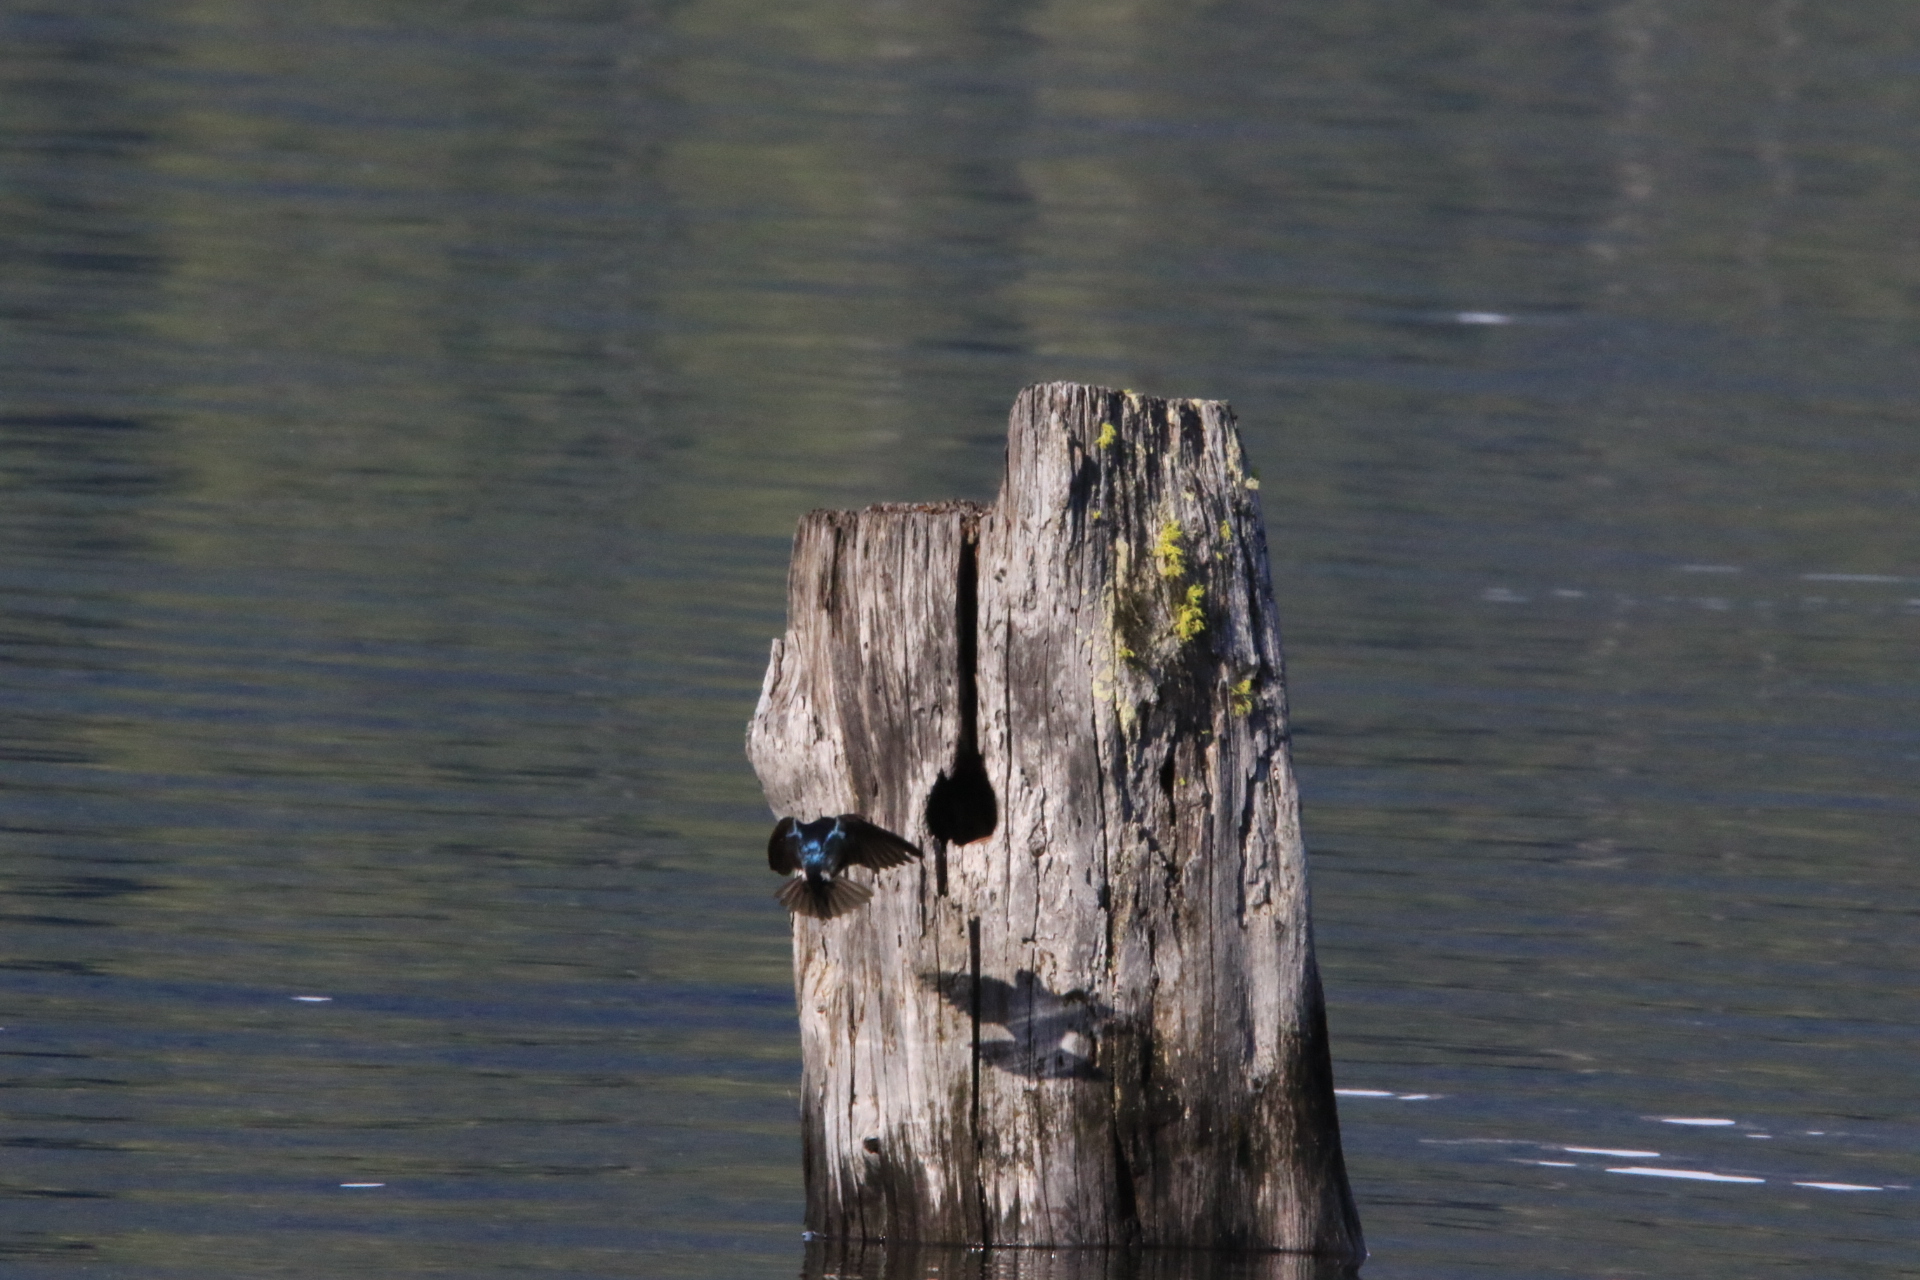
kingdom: Animalia
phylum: Chordata
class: Aves
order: Passeriformes
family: Hirundinidae
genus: Tachycineta
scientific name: Tachycineta bicolor
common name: Tree swallow
